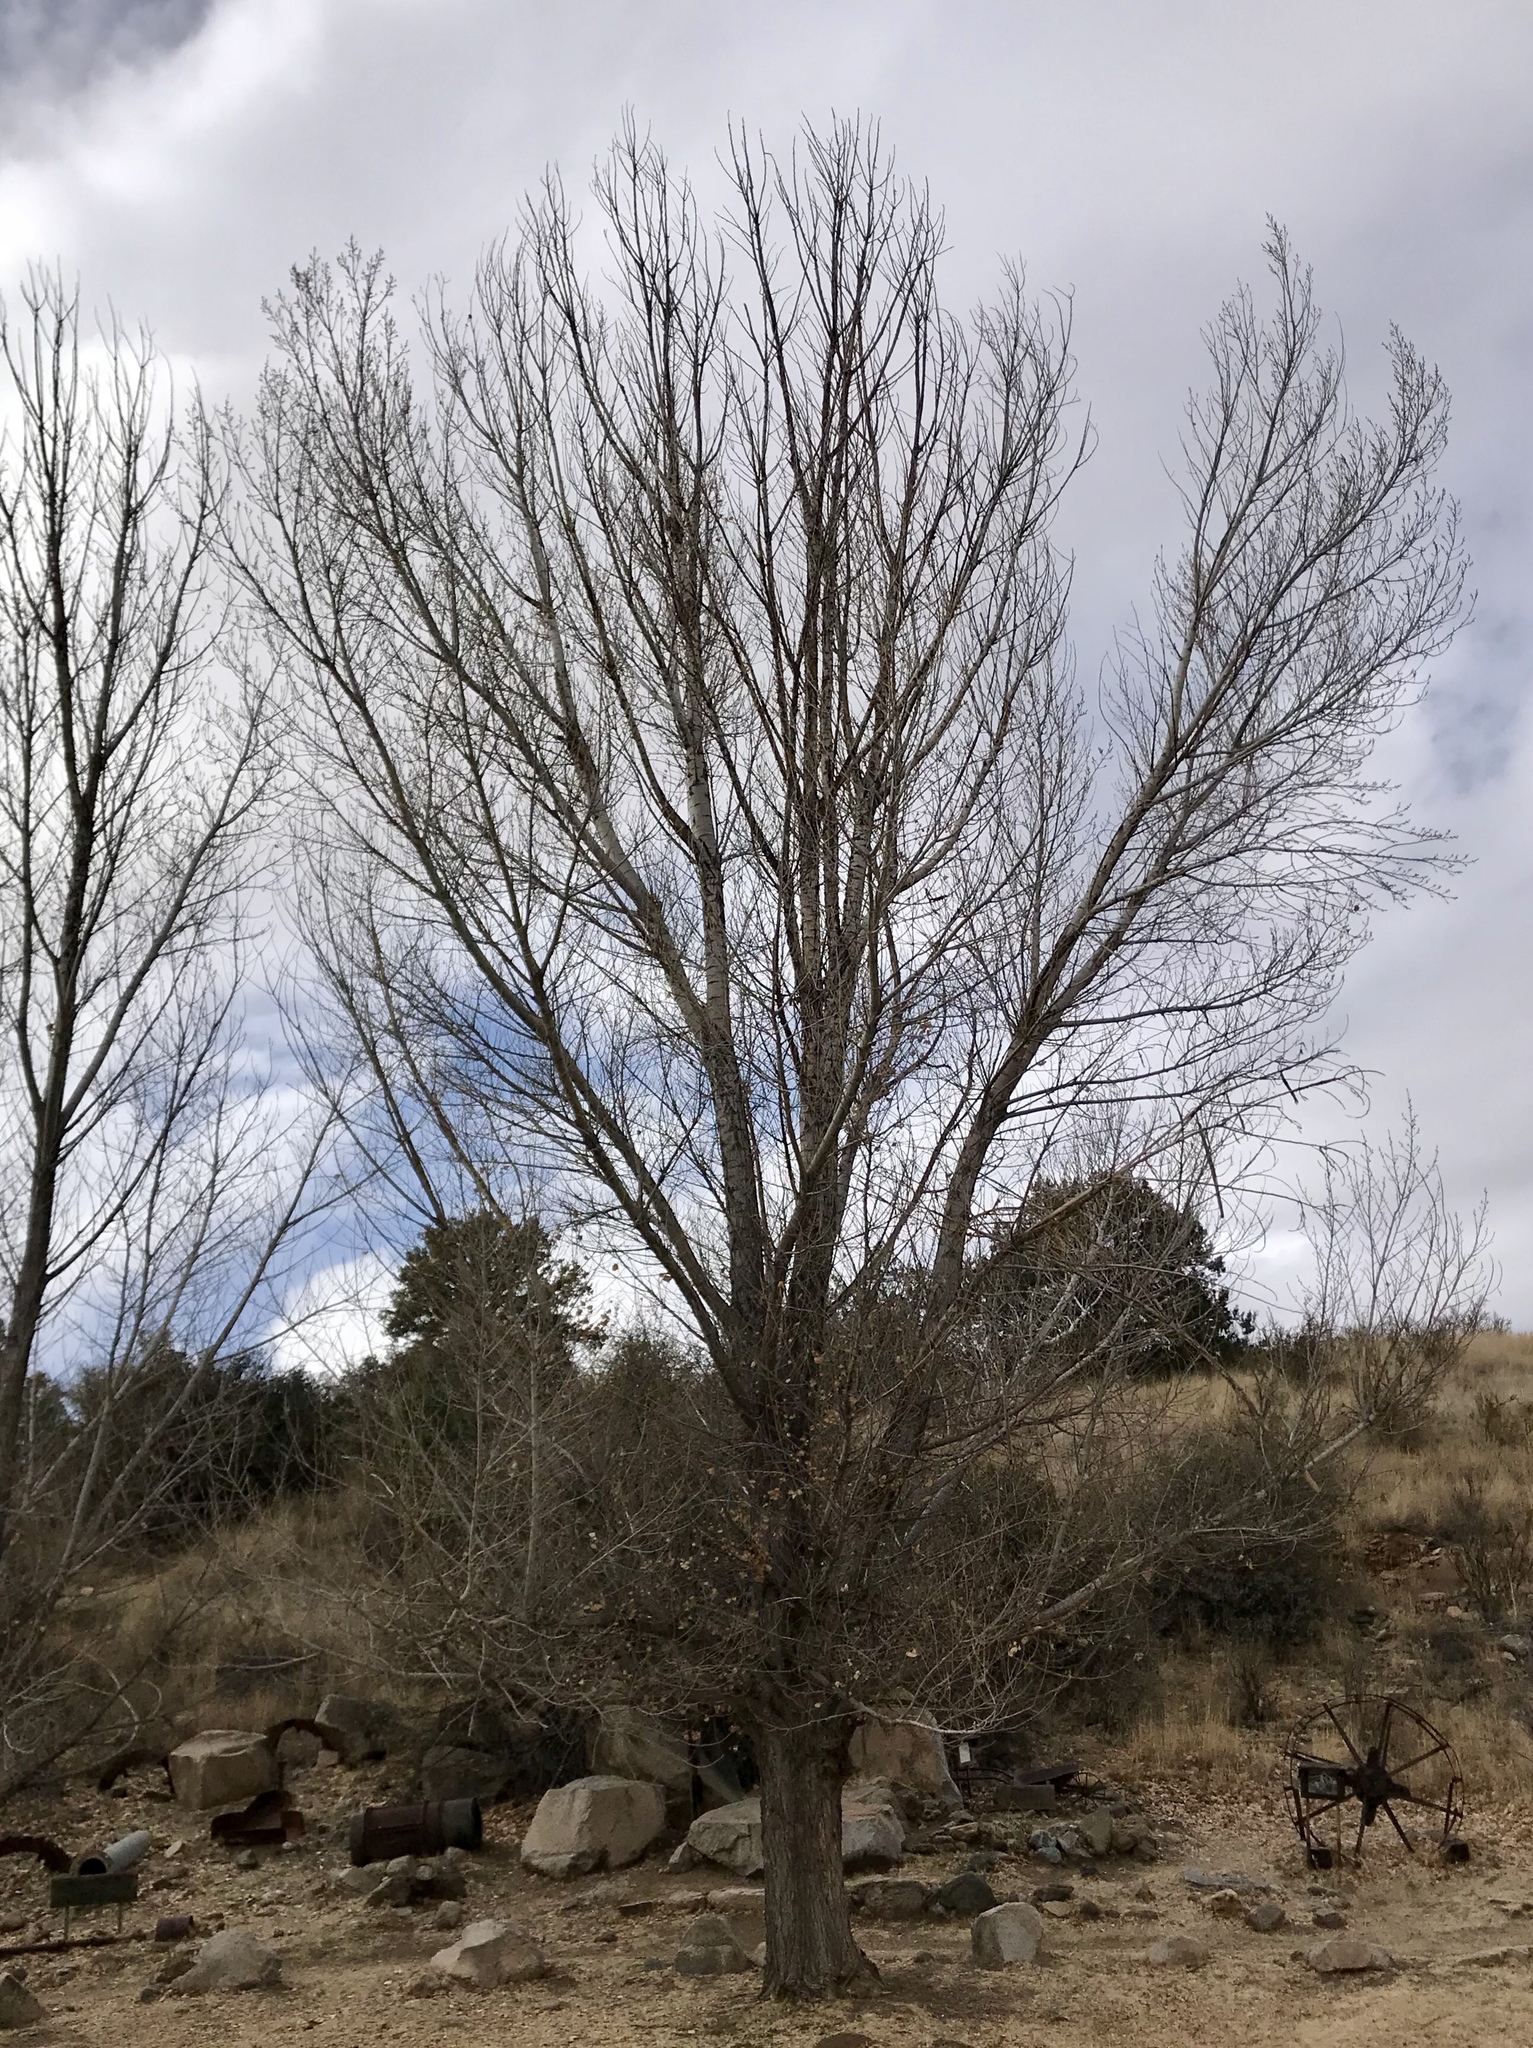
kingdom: Plantae
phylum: Tracheophyta
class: Magnoliopsida
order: Malpighiales
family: Salicaceae
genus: Populus
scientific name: Populus fremontii
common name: Fremont's cottonwood
